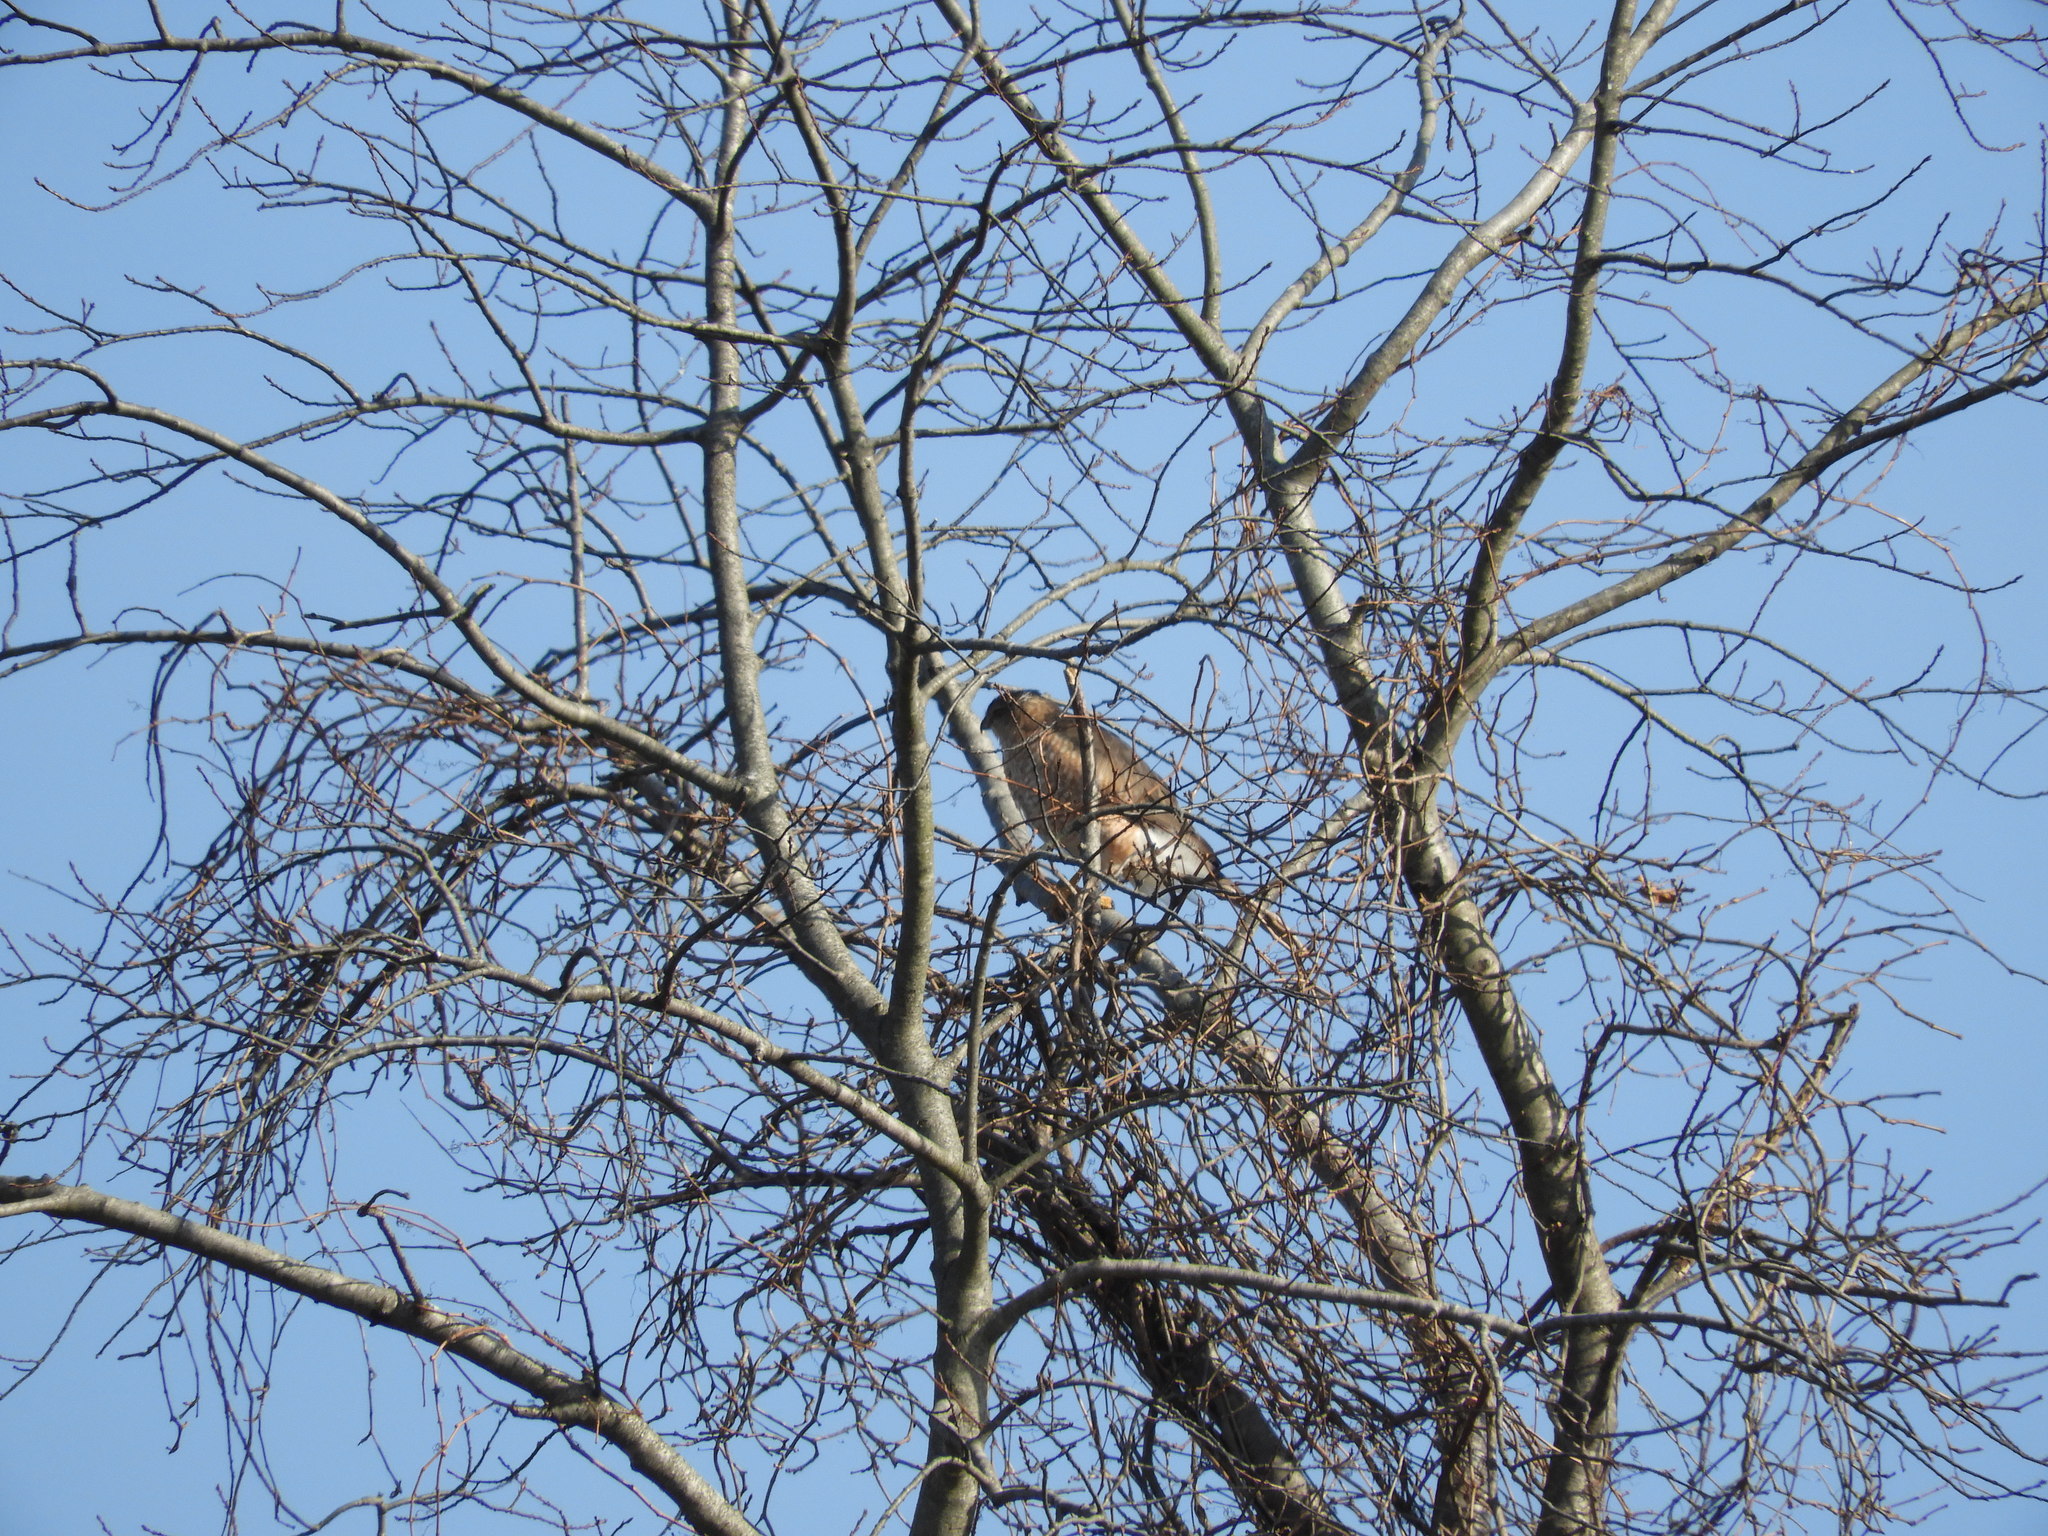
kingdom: Animalia
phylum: Chordata
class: Aves
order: Accipitriformes
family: Accipitridae
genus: Accipiter
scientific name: Accipiter cooperii
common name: Cooper's hawk
